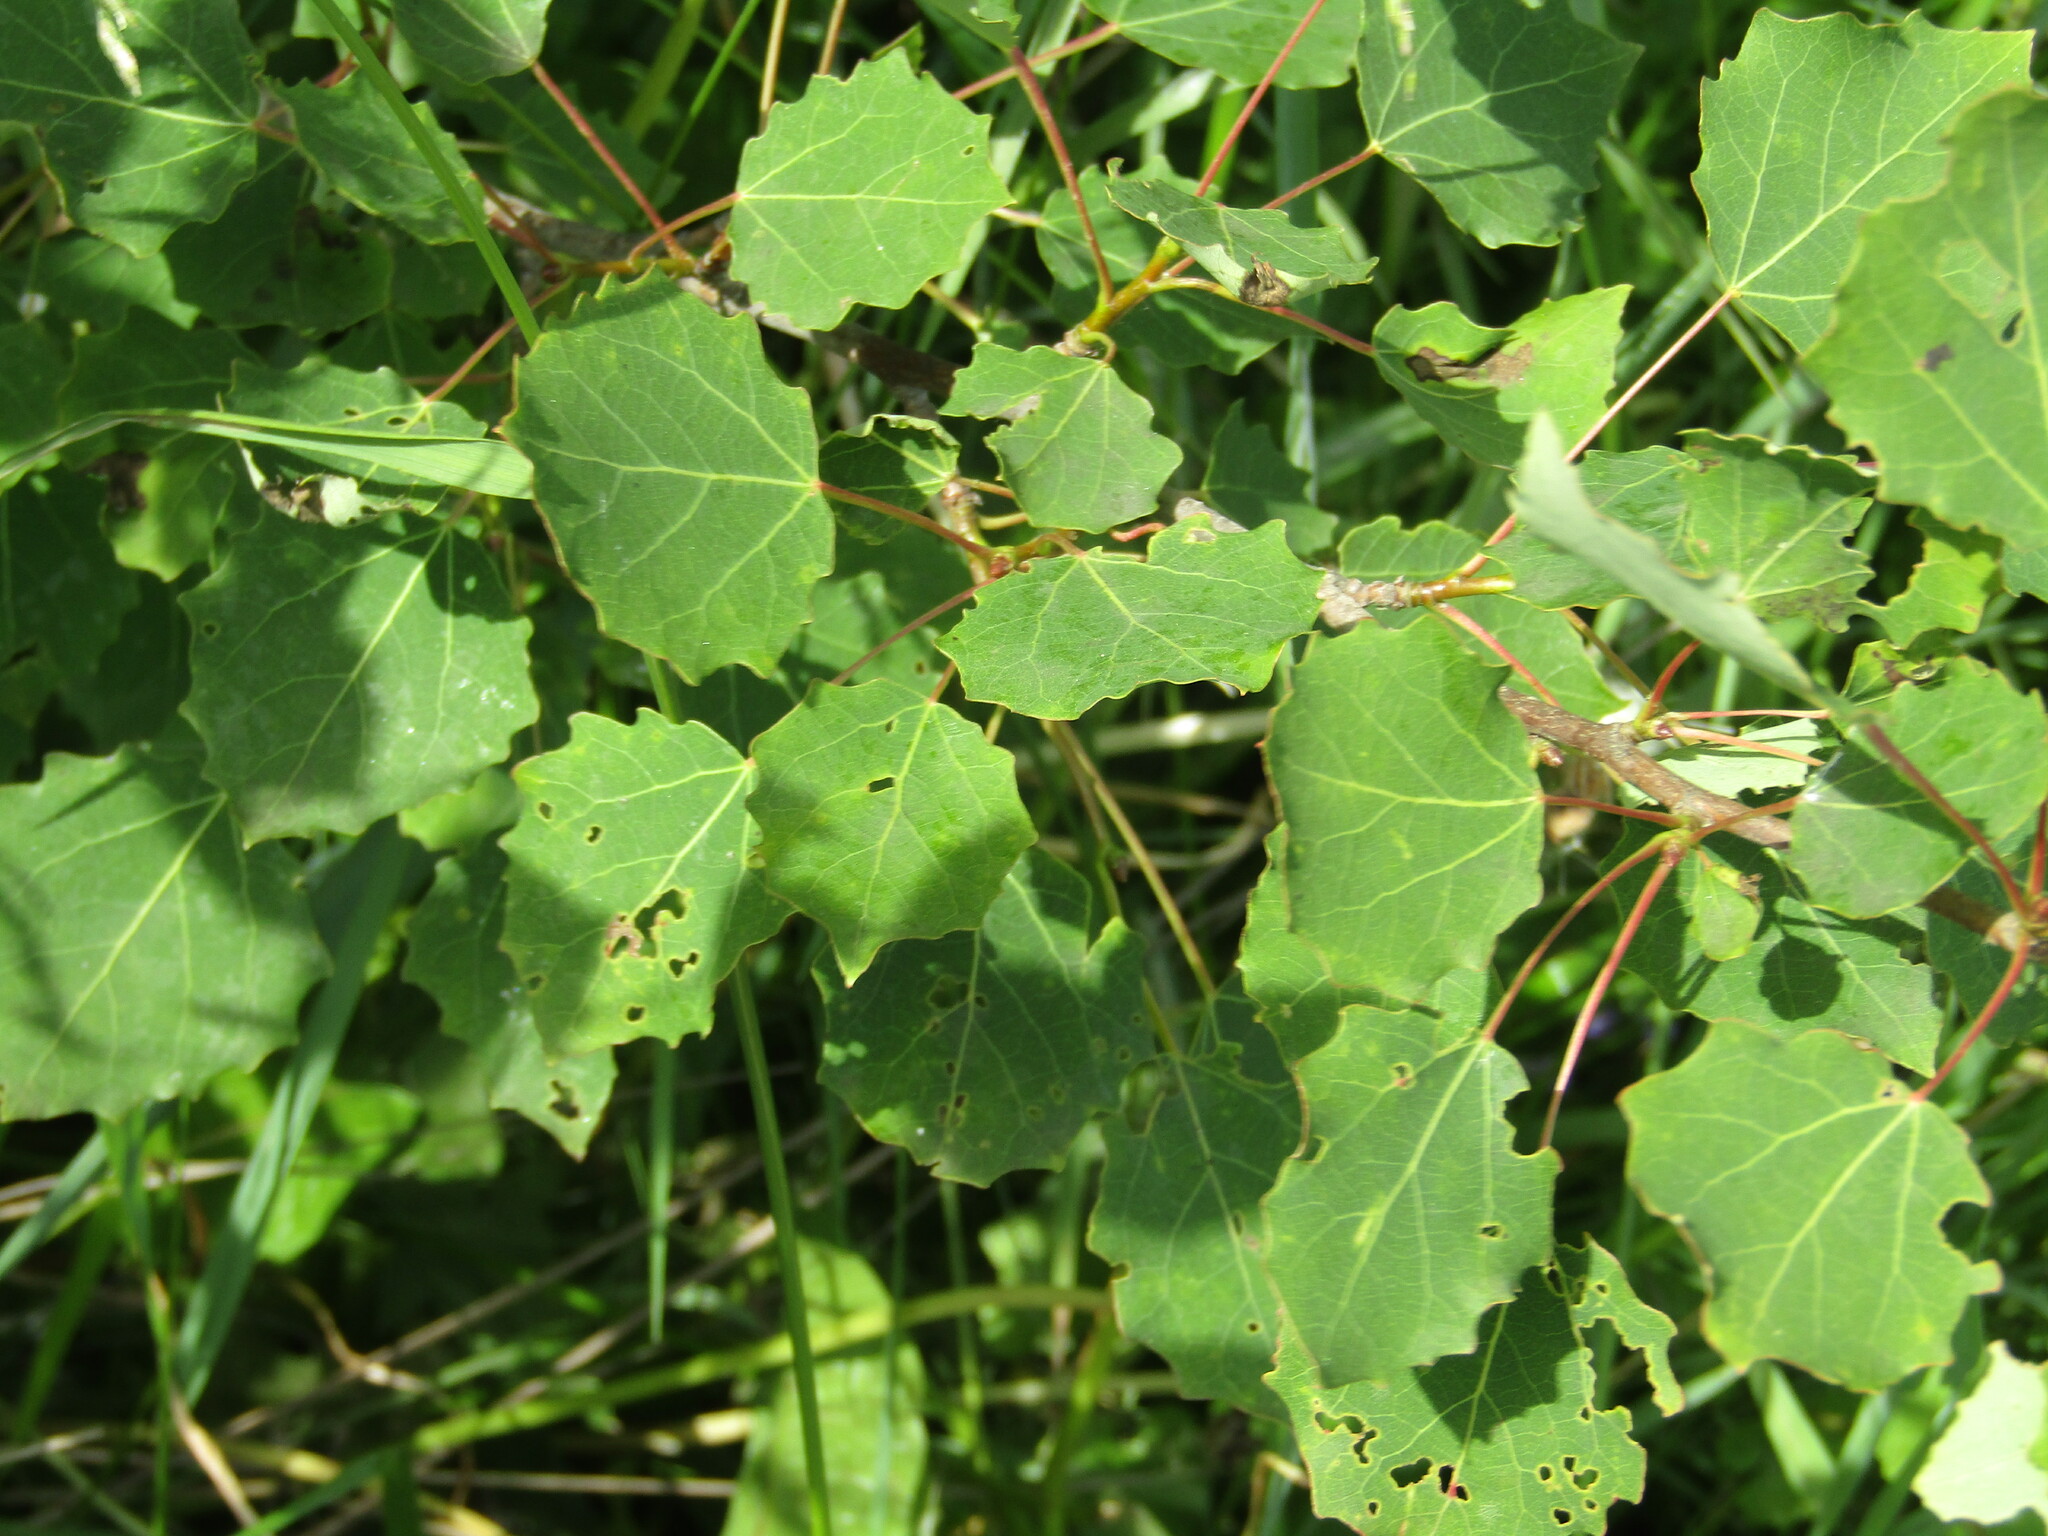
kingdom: Plantae
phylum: Tracheophyta
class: Magnoliopsida
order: Malpighiales
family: Salicaceae
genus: Populus
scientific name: Populus tremula
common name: European aspen
